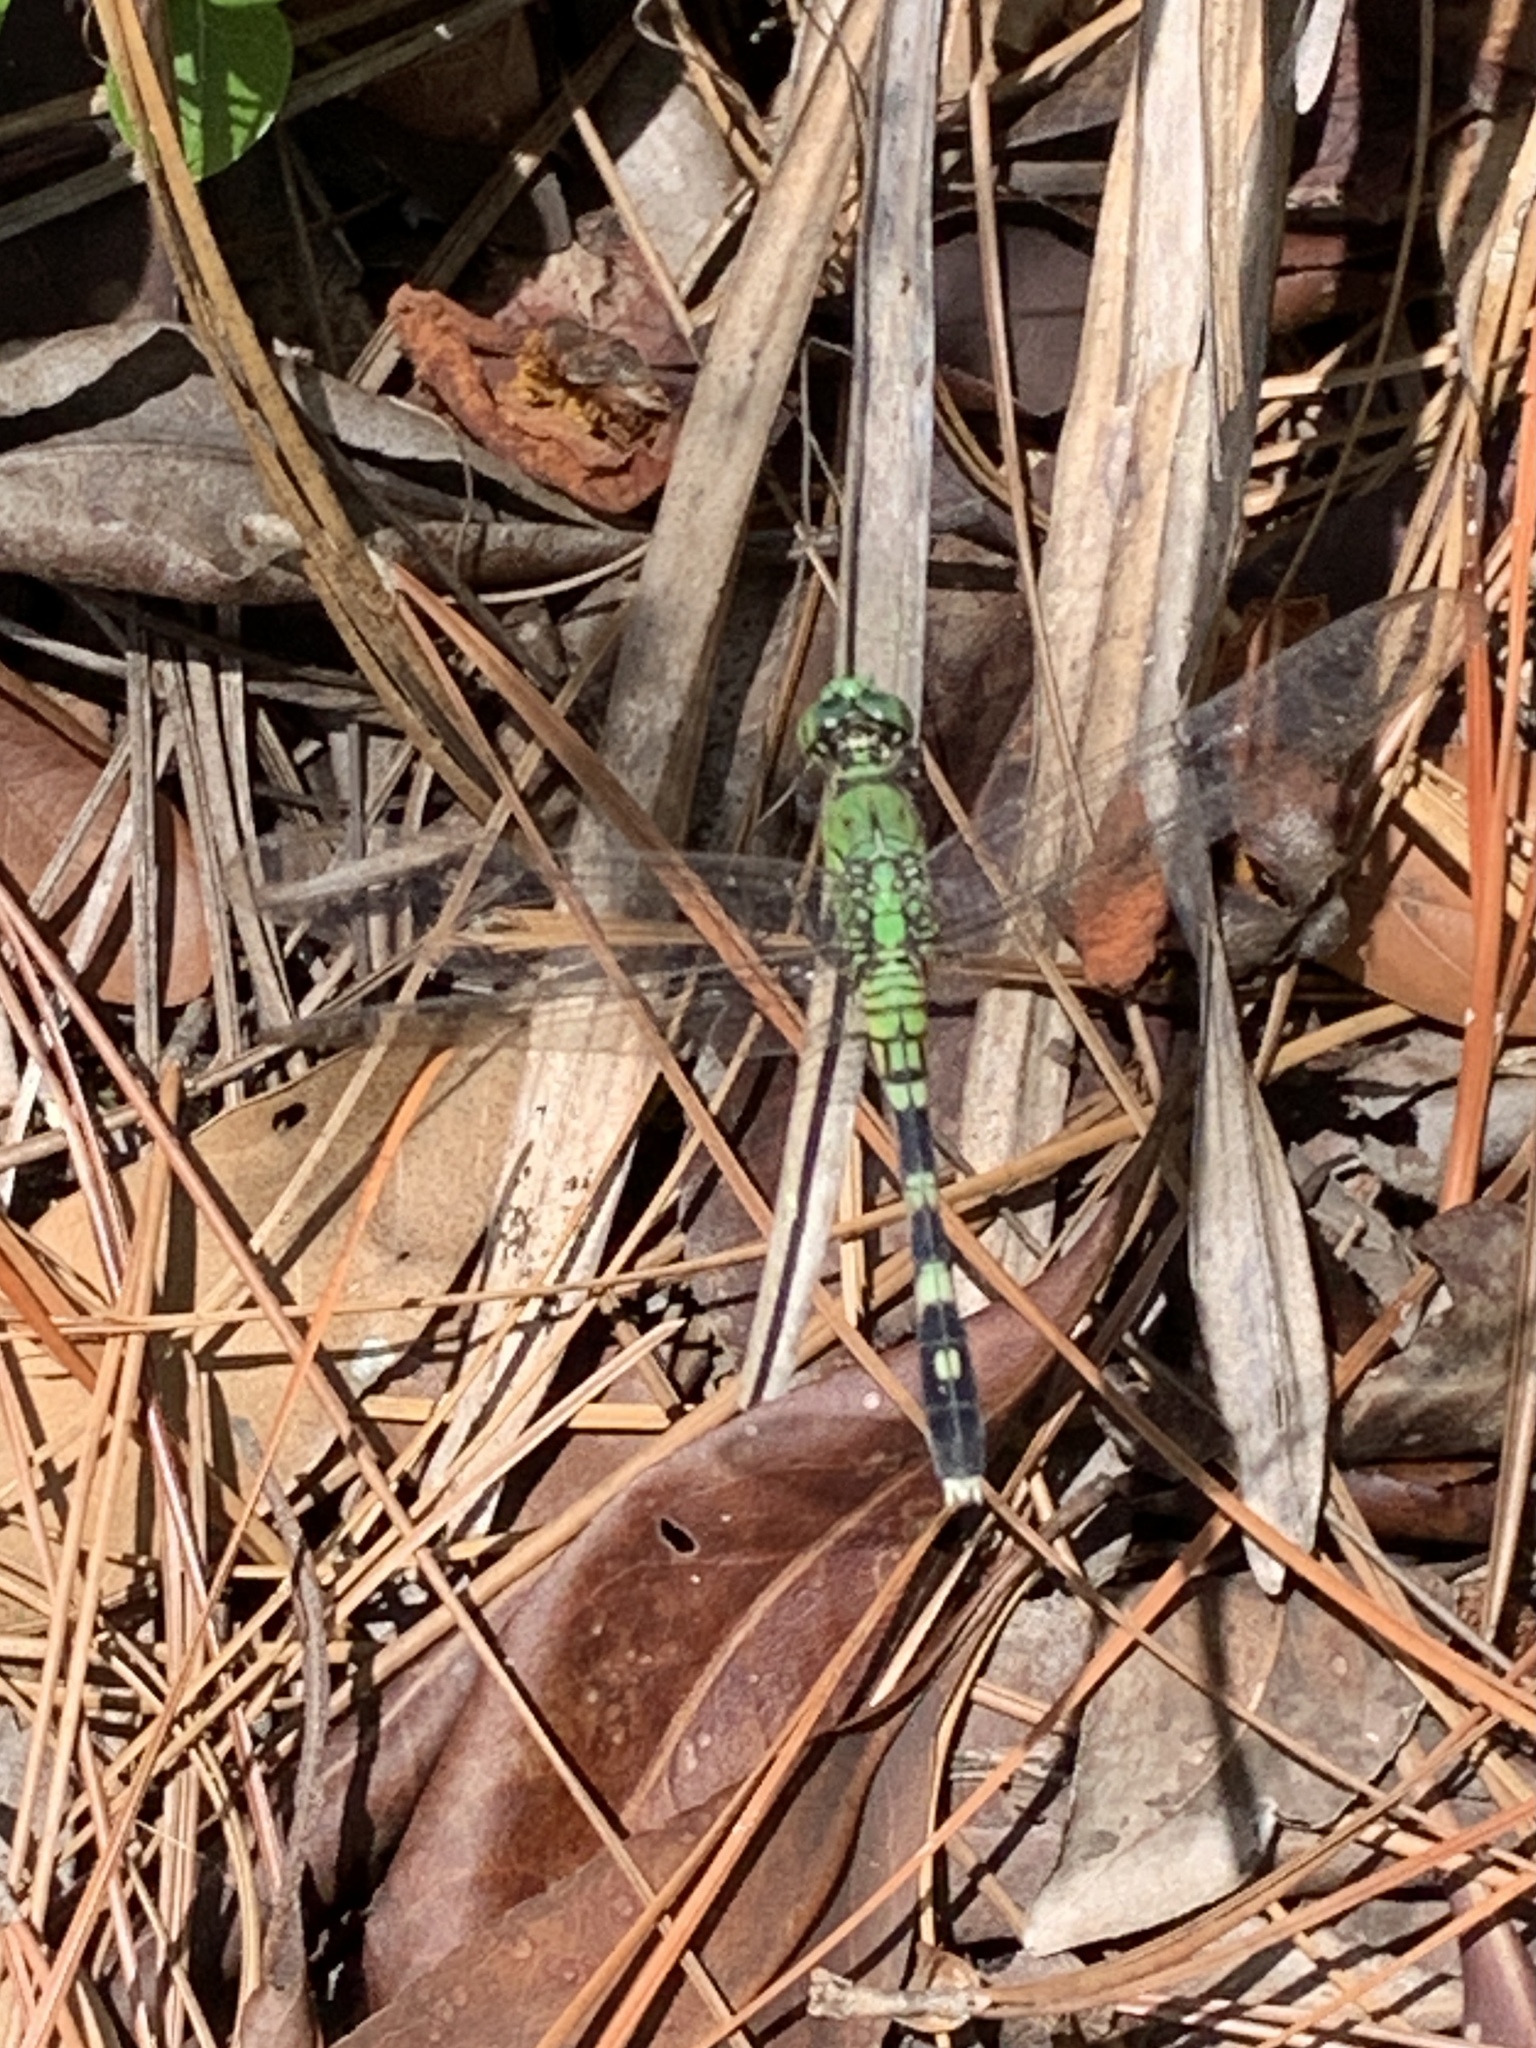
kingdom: Animalia
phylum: Arthropoda
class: Insecta
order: Odonata
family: Libellulidae
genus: Erythemis
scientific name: Erythemis simplicicollis
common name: Eastern pondhawk
